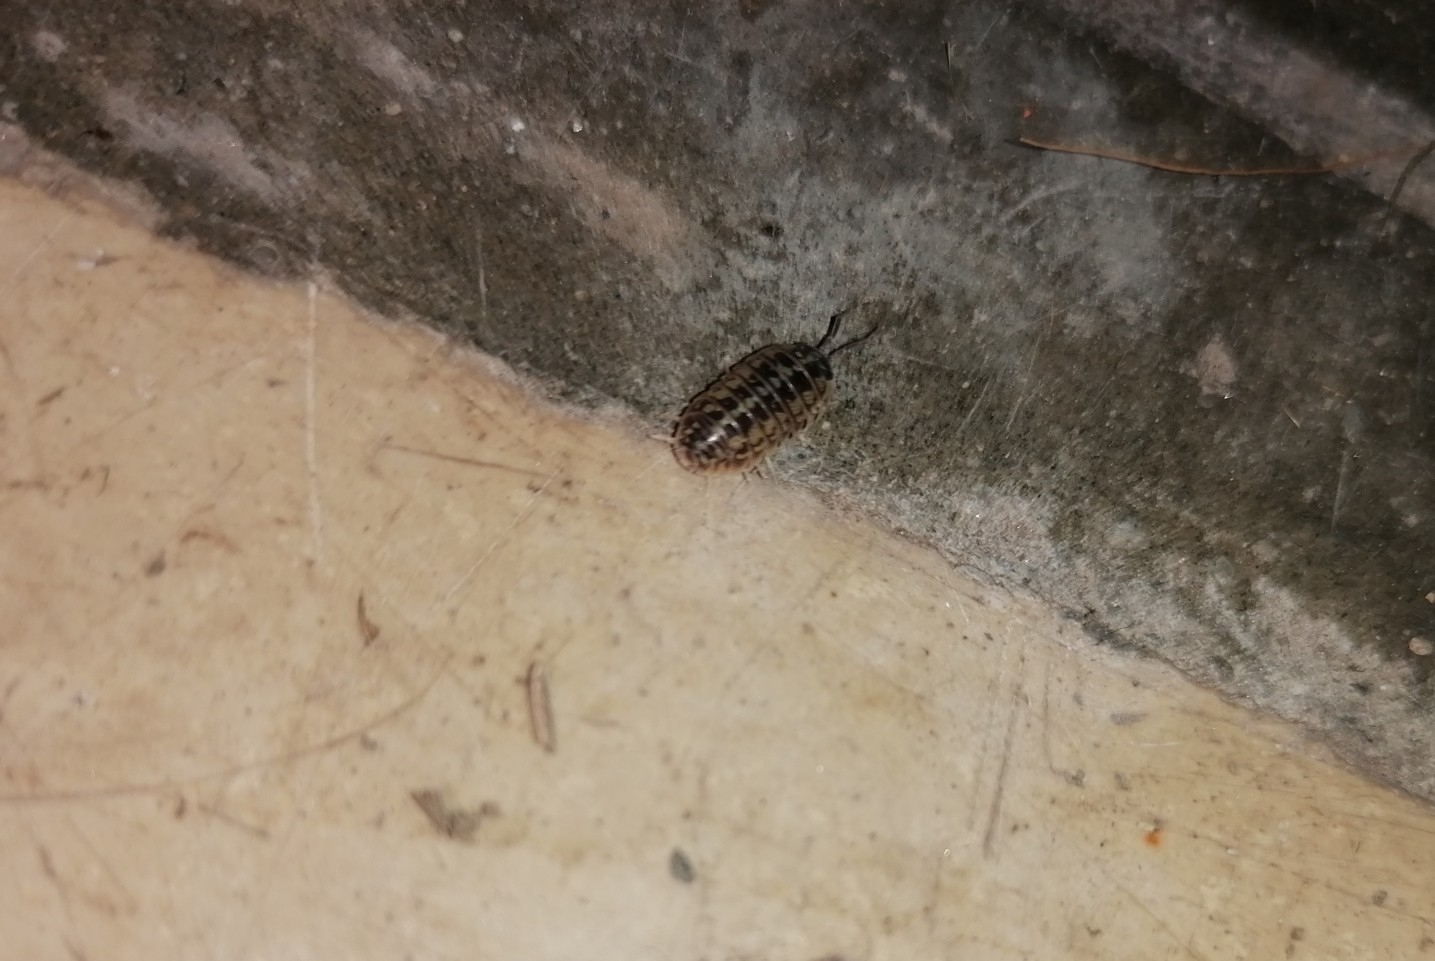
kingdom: Animalia
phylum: Arthropoda
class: Malacostraca
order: Isopoda
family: Armadillidiidae
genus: Armadillidium
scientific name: Armadillidium versicolor
